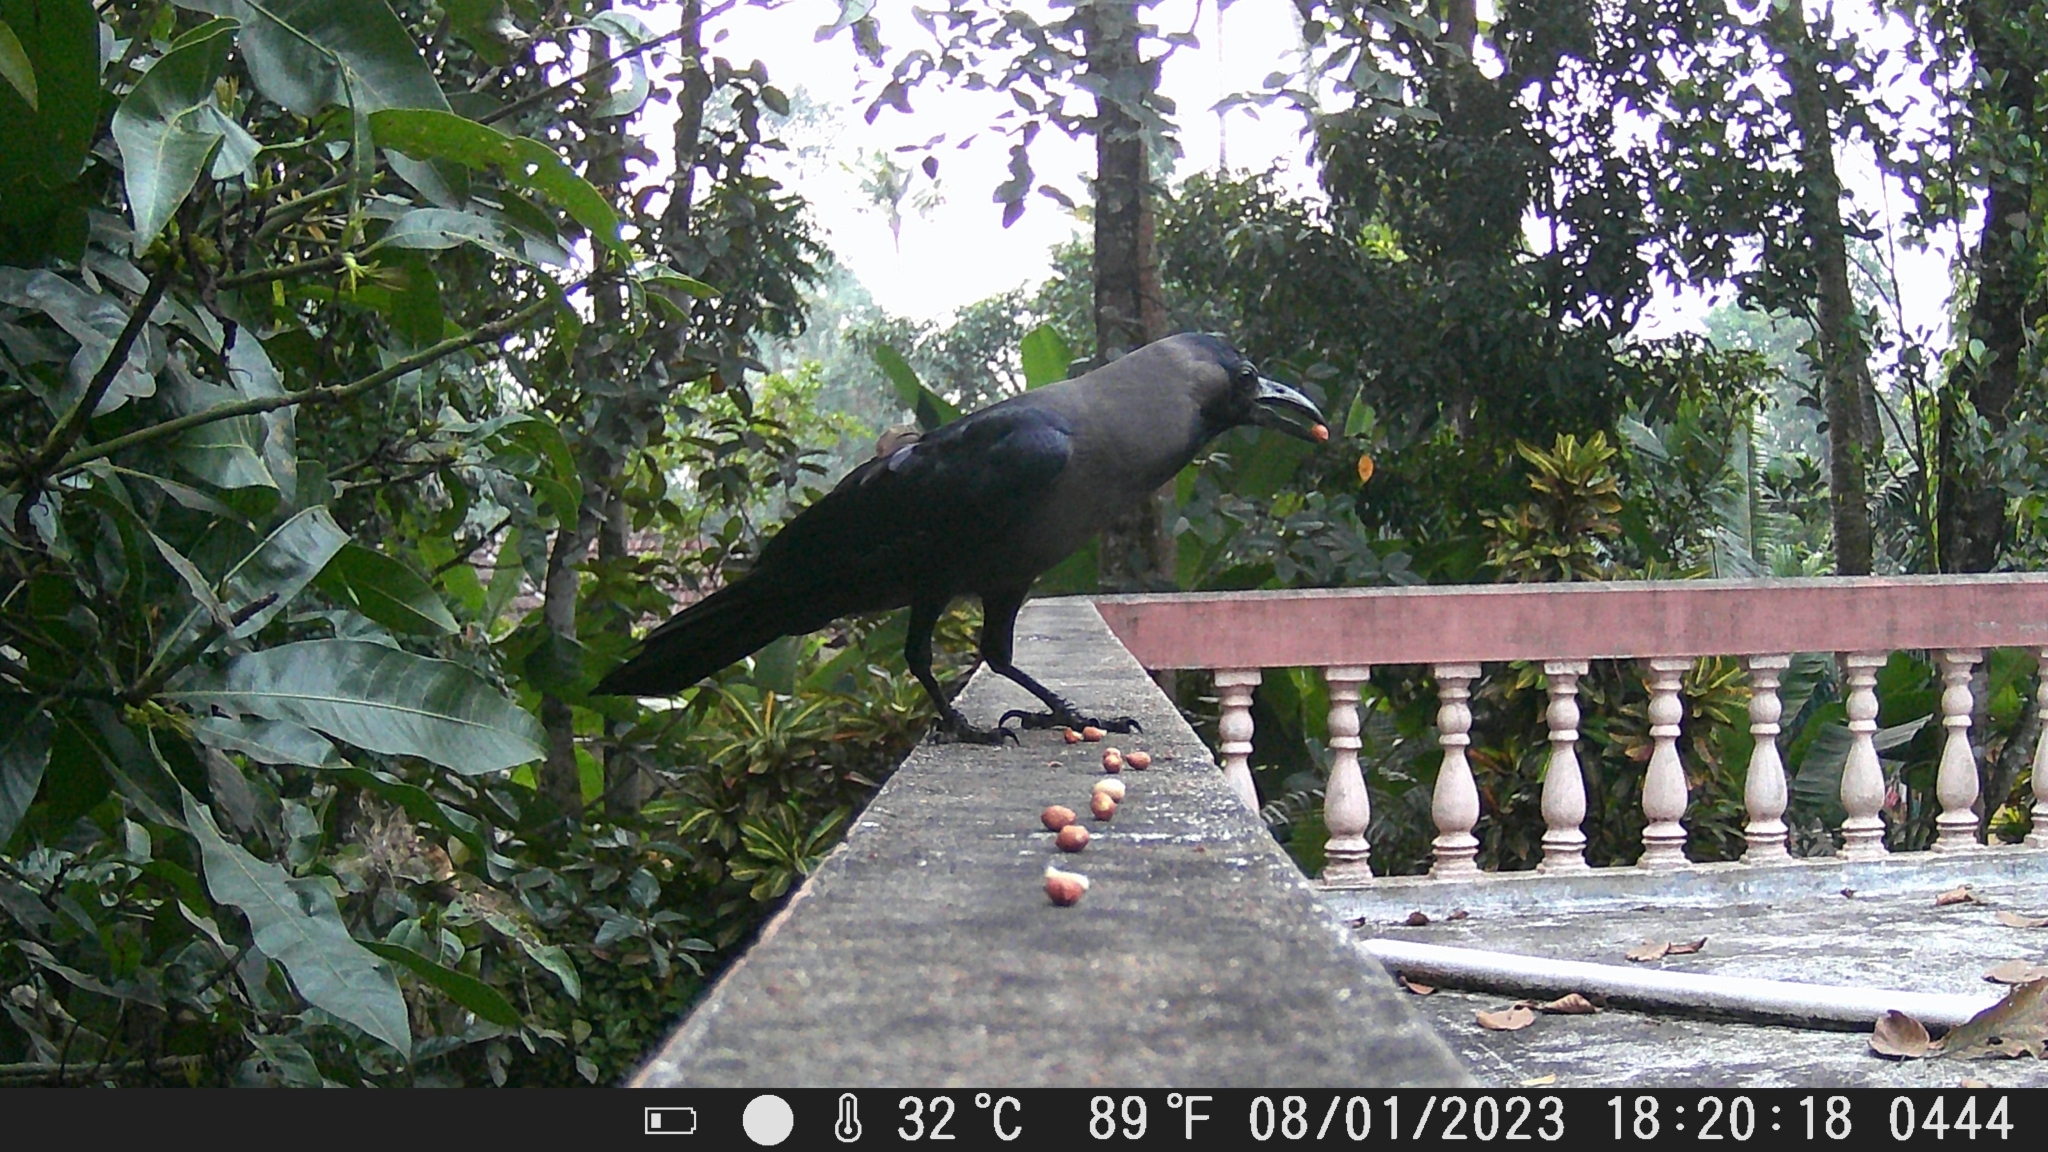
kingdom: Animalia
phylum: Chordata
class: Aves
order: Passeriformes
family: Corvidae
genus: Corvus
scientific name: Corvus splendens
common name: House crow
